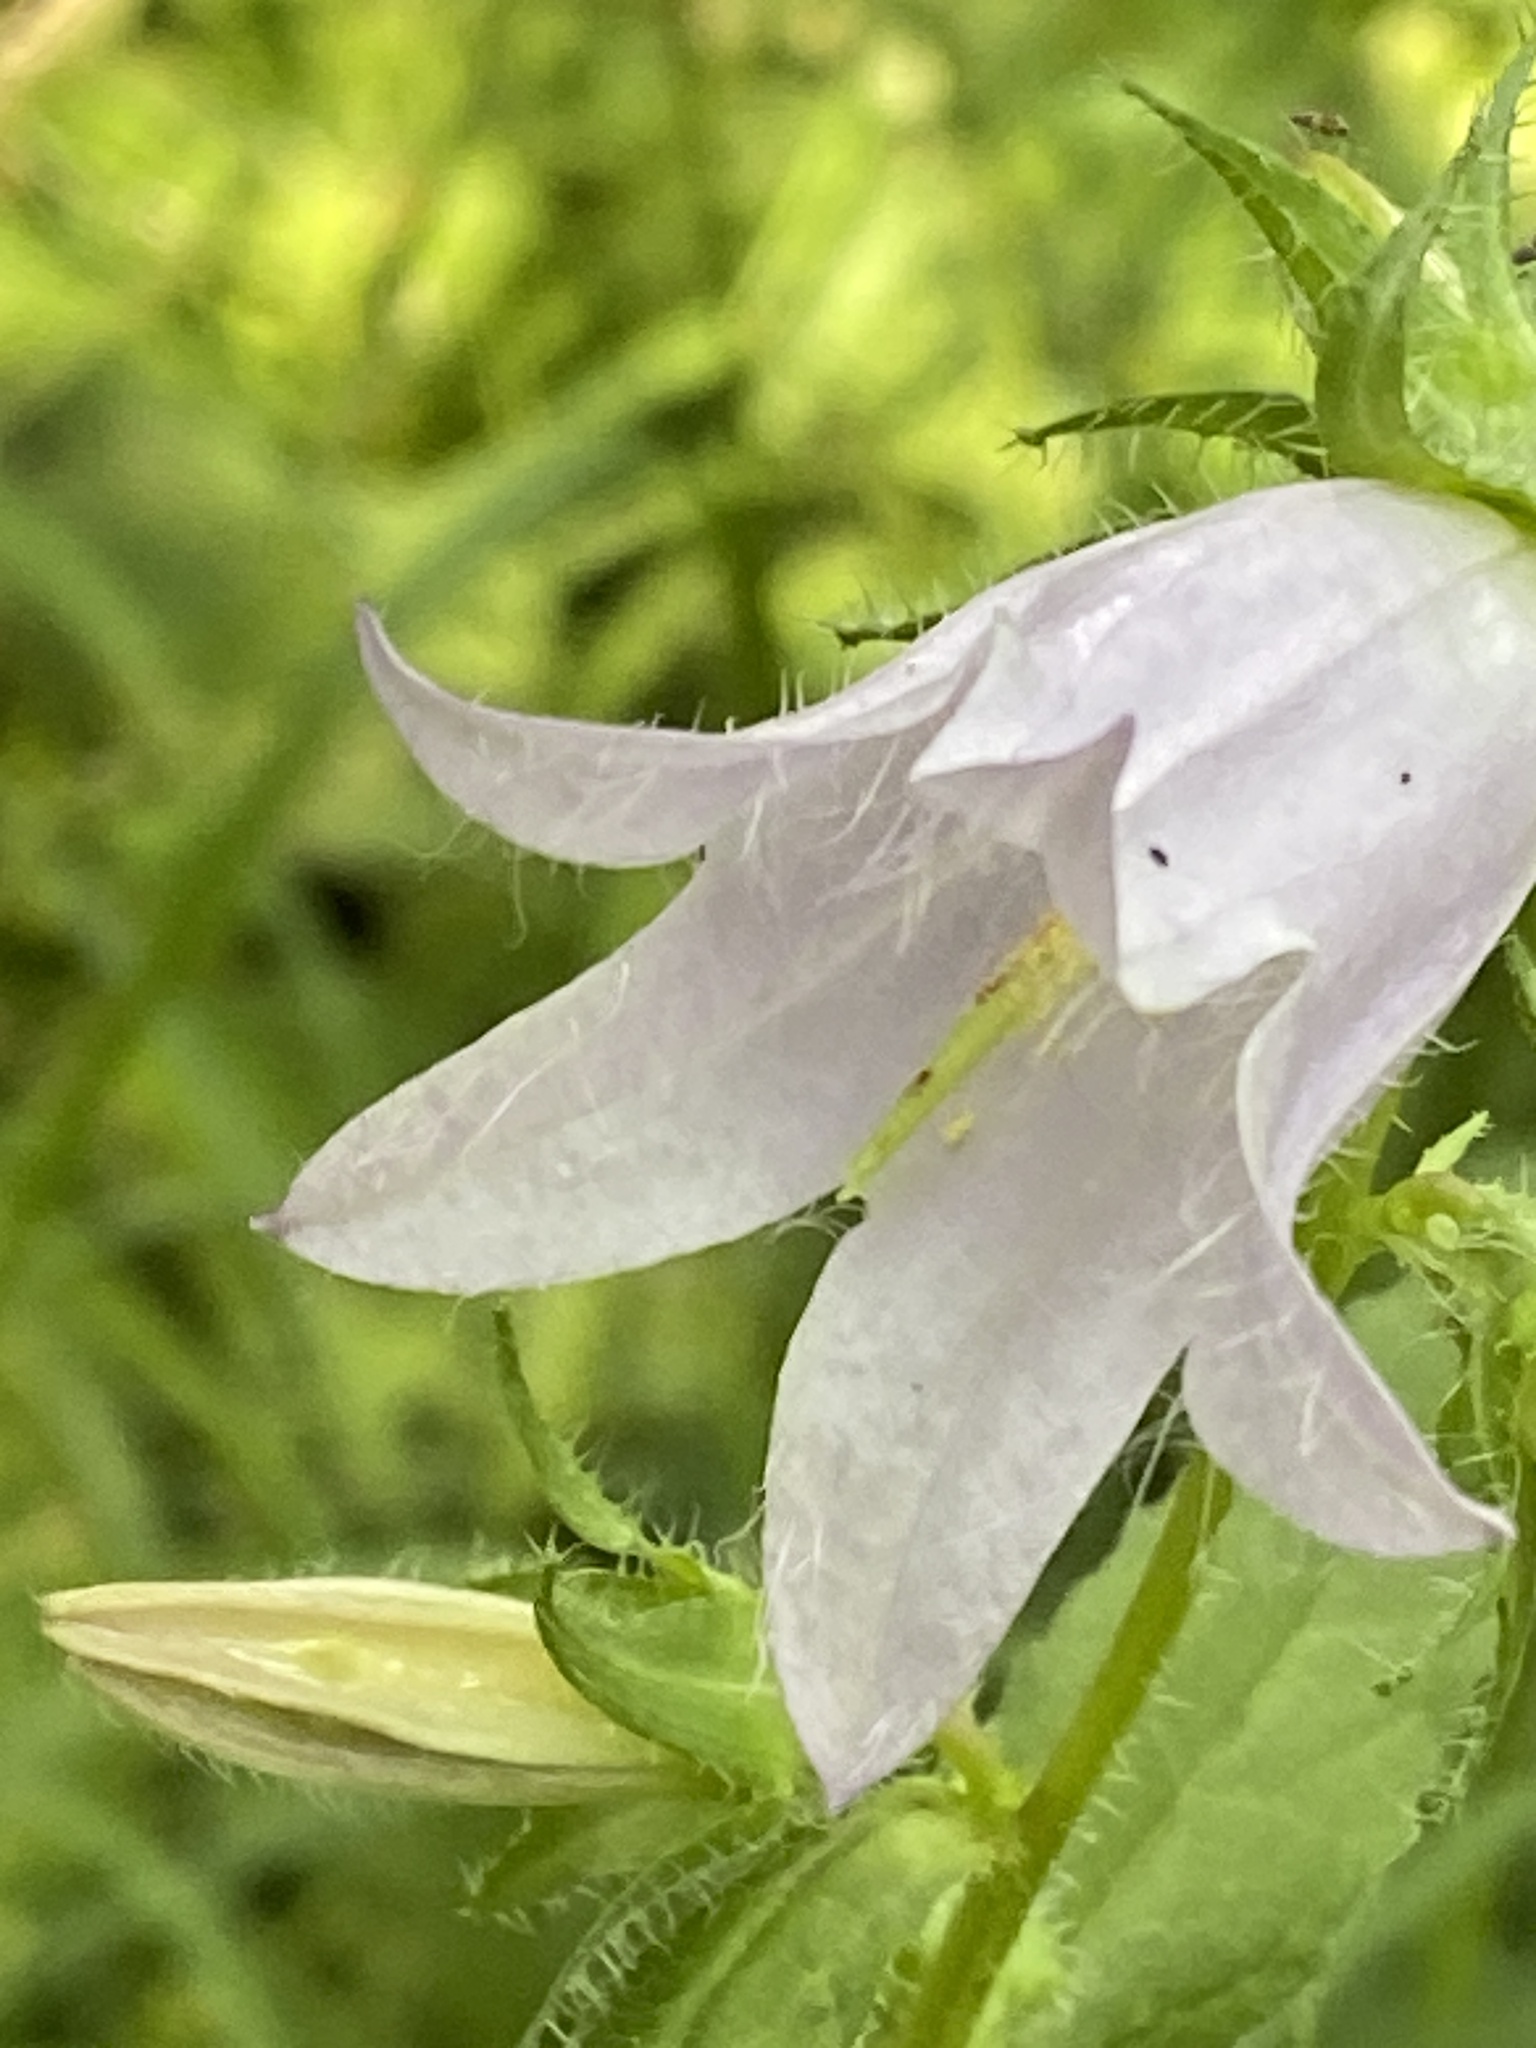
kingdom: Plantae
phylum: Tracheophyta
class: Magnoliopsida
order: Asterales
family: Campanulaceae
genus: Campanula
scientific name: Campanula trachelium
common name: Nettle-leaved bellflower
